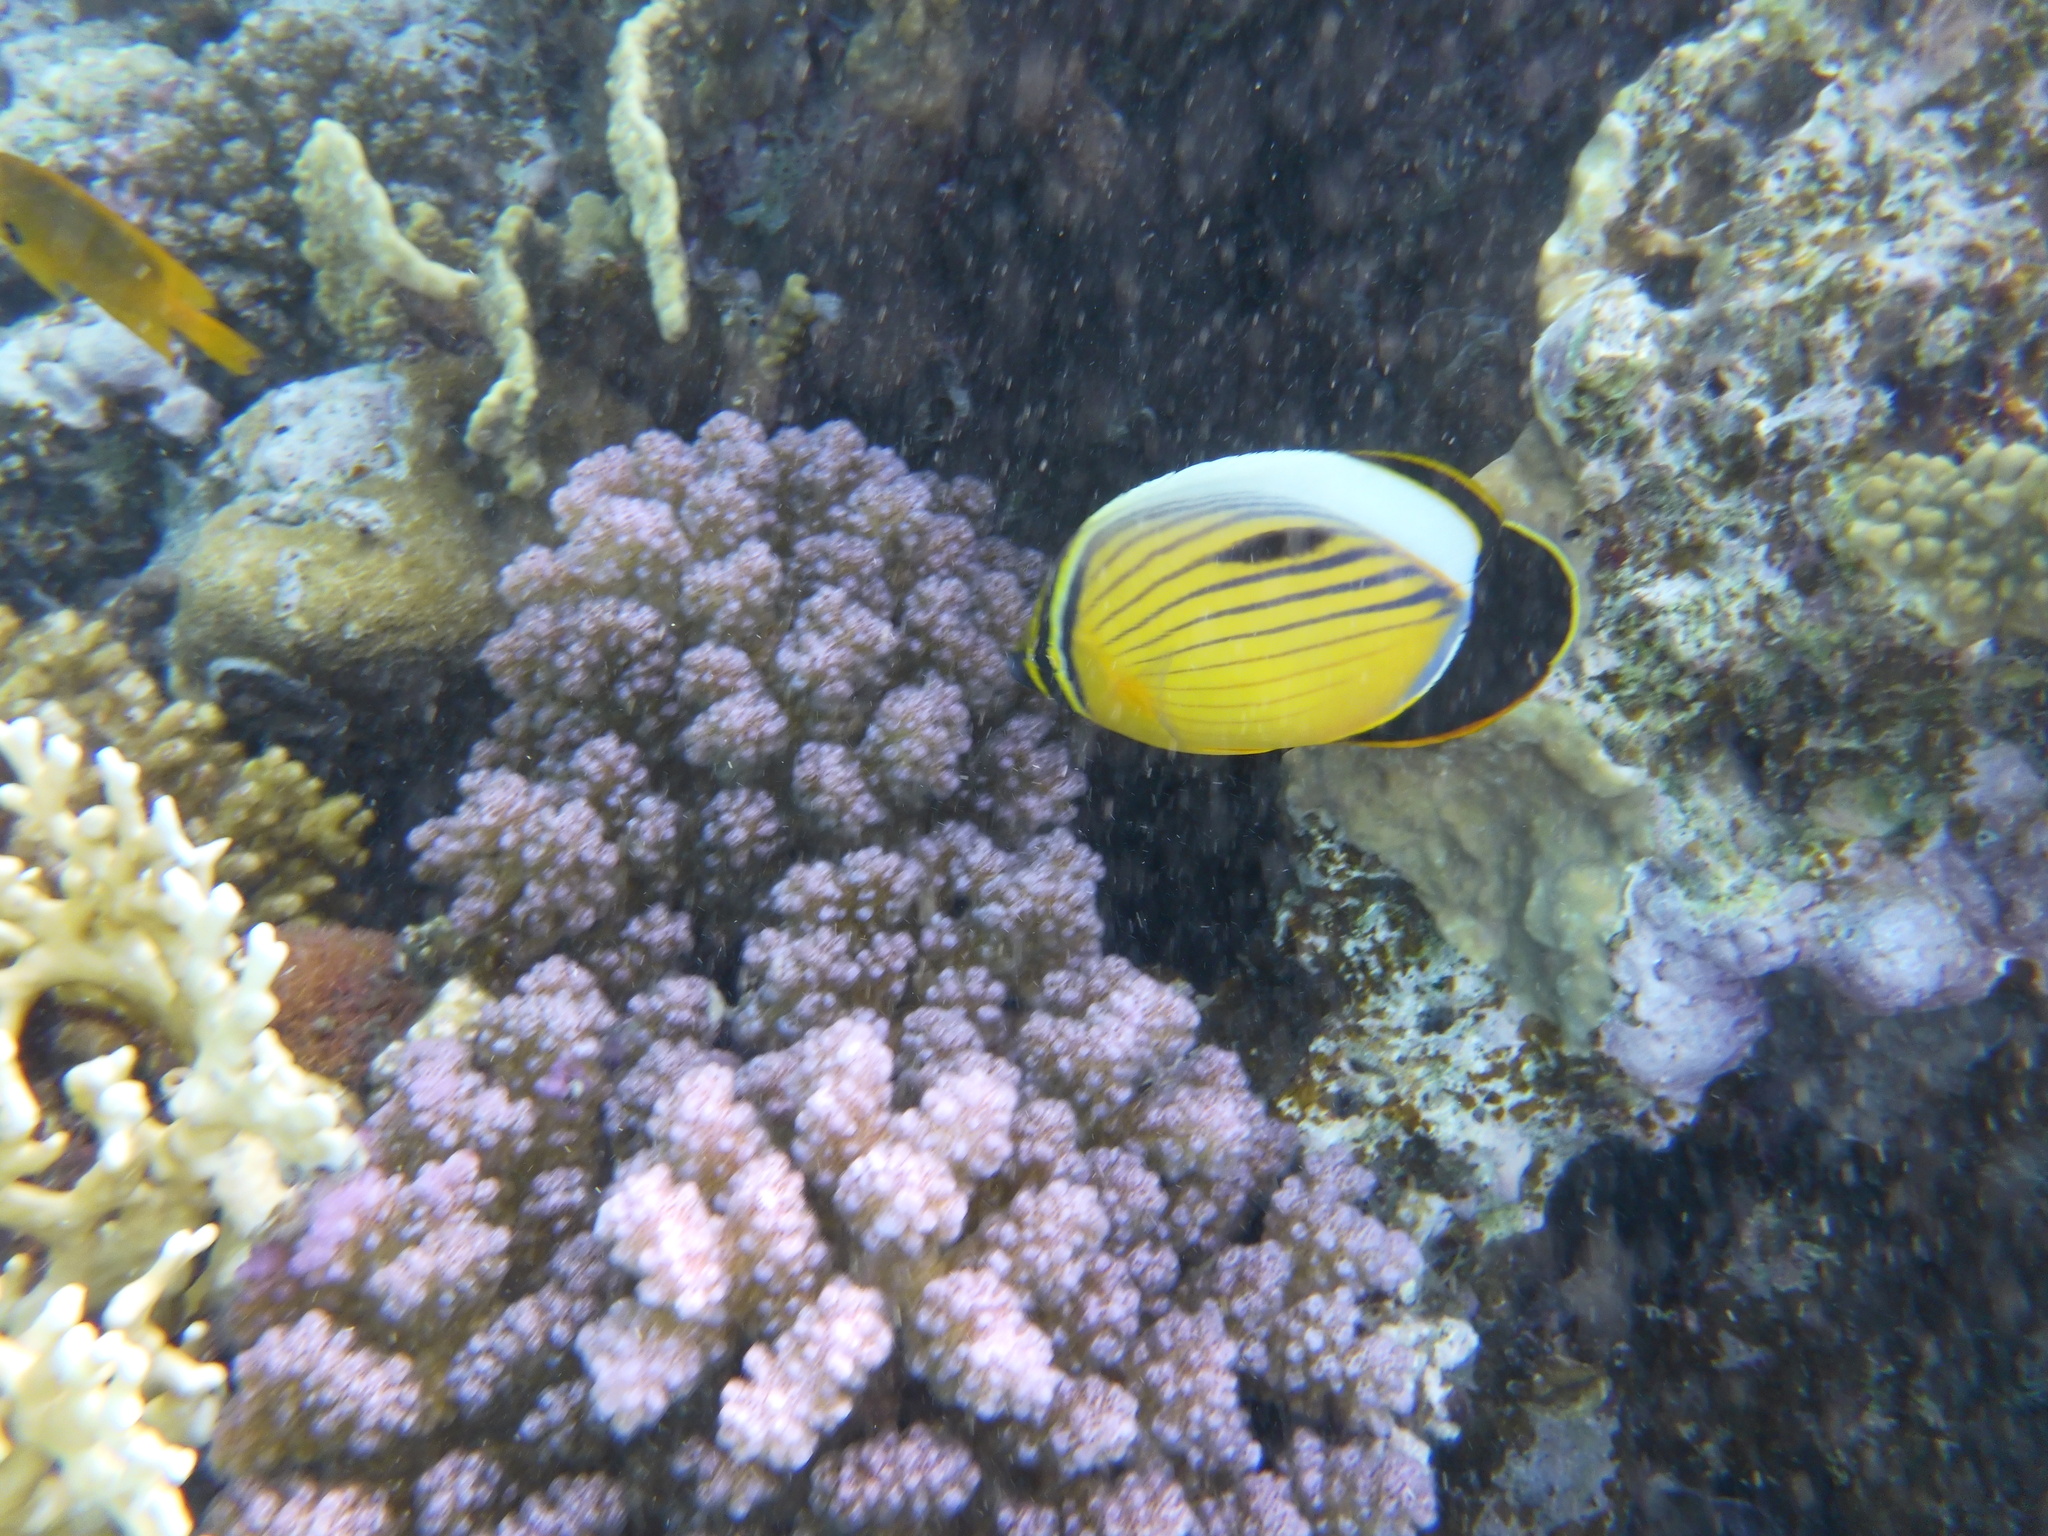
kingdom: Animalia
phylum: Chordata
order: Perciformes
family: Chaetodontidae
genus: Chaetodon
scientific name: Chaetodon austriacus
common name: Exquisite butterflyfish
